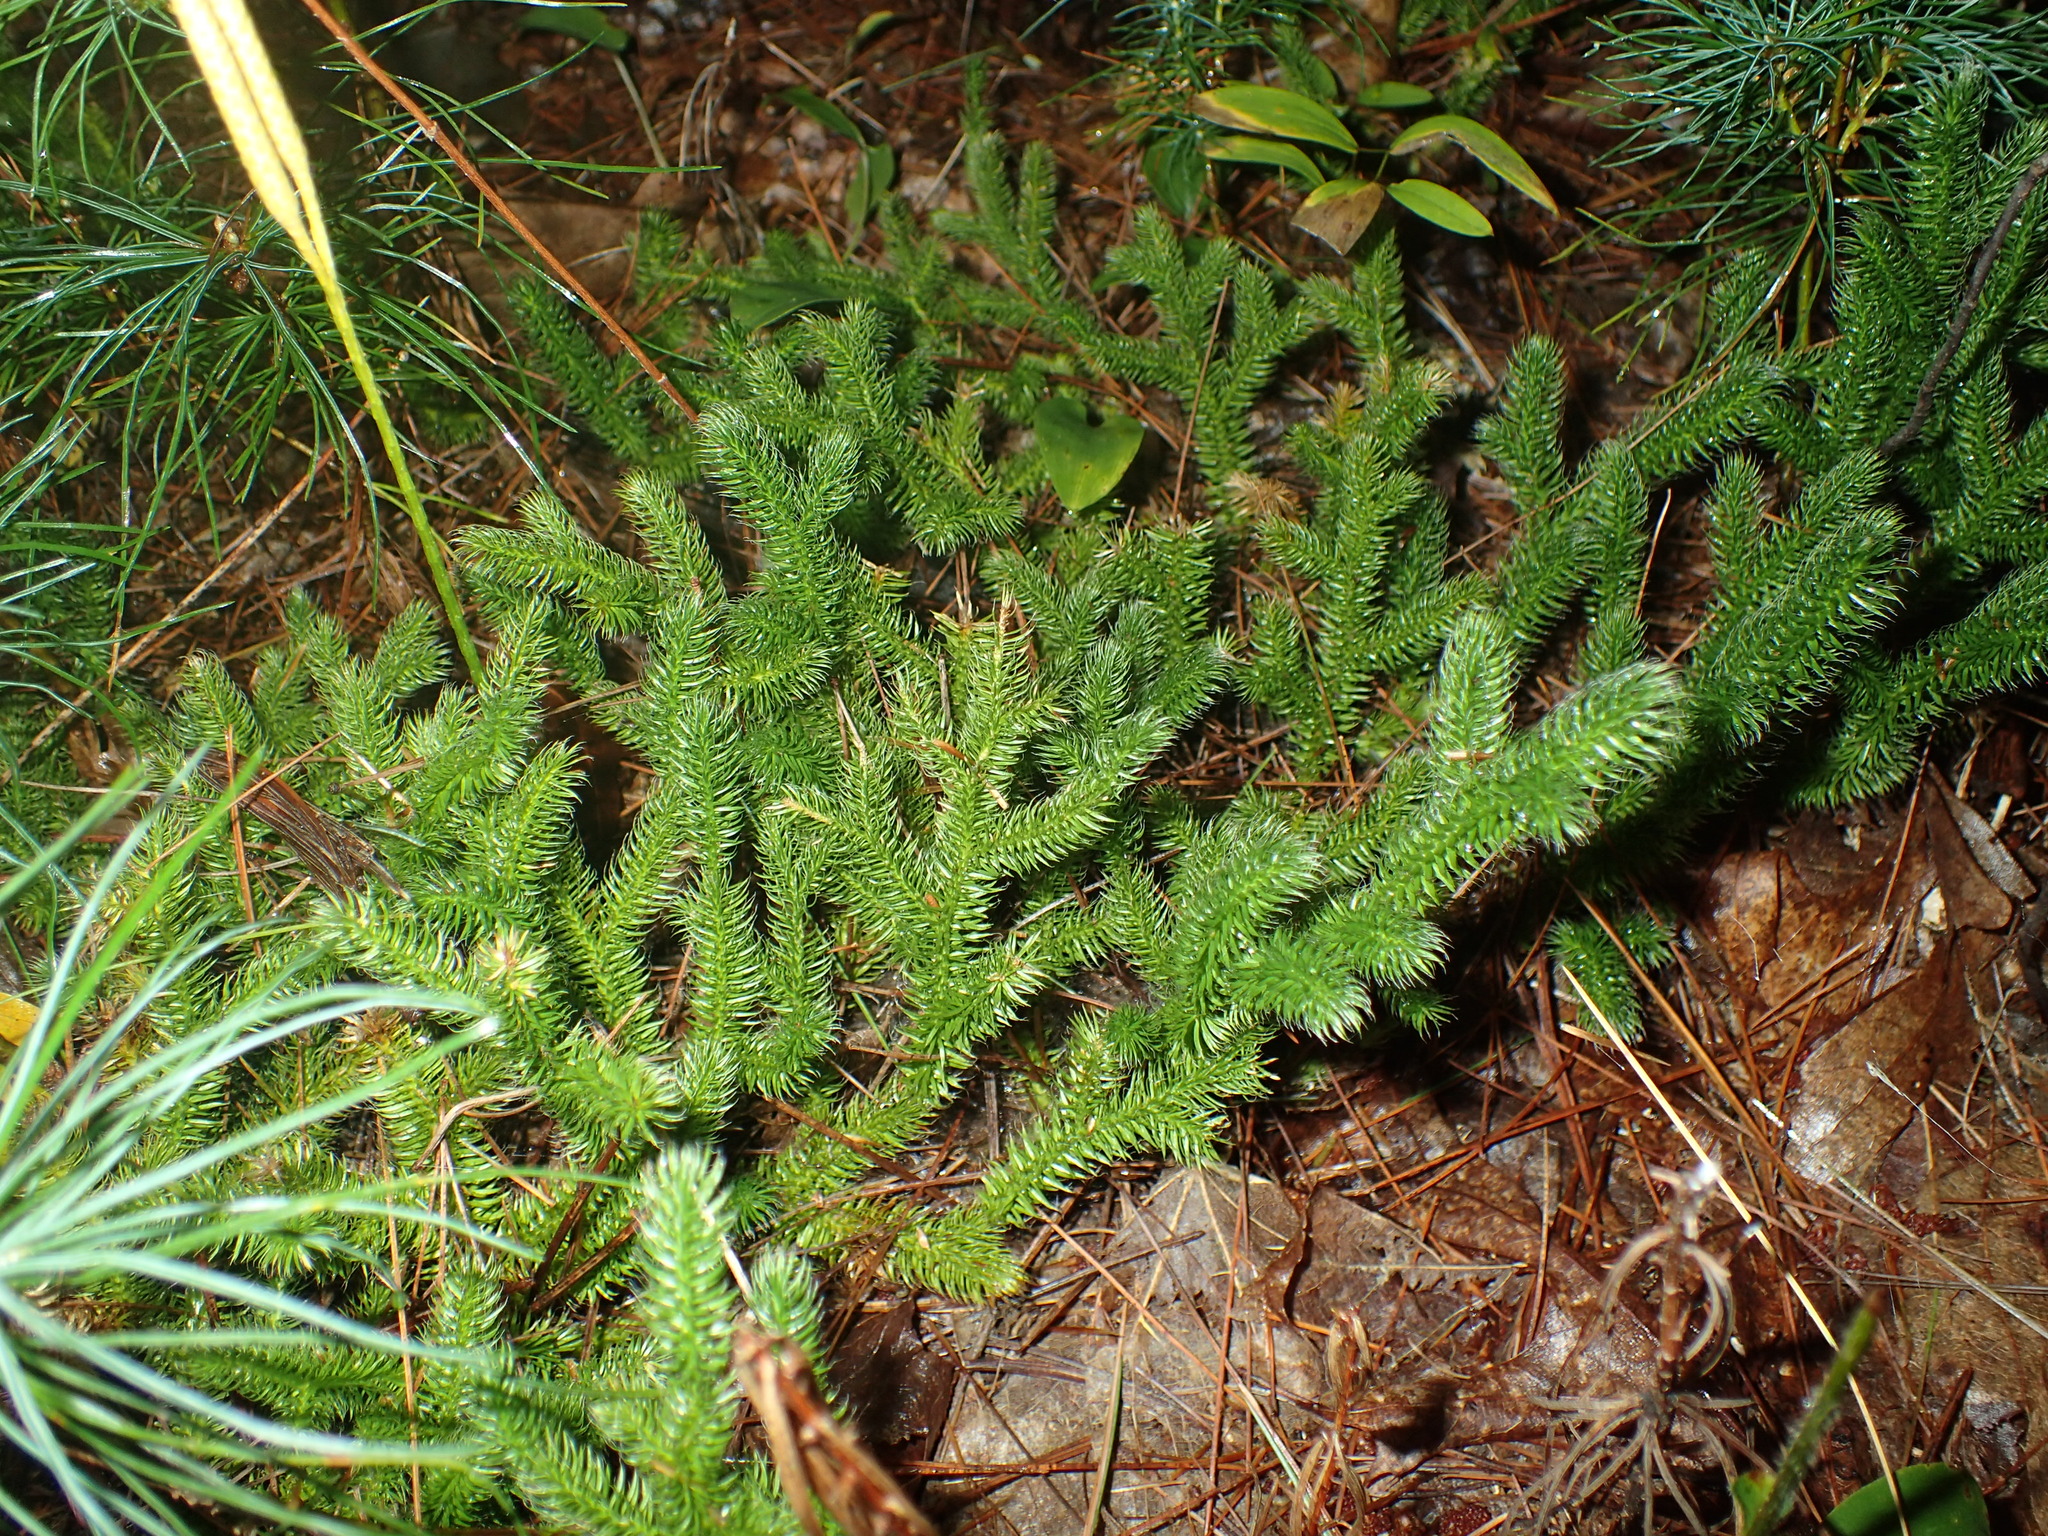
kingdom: Plantae
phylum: Tracheophyta
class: Lycopodiopsida
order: Lycopodiales
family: Lycopodiaceae
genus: Lycopodium
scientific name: Lycopodium clavatum
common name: Stag's-horn clubmoss
